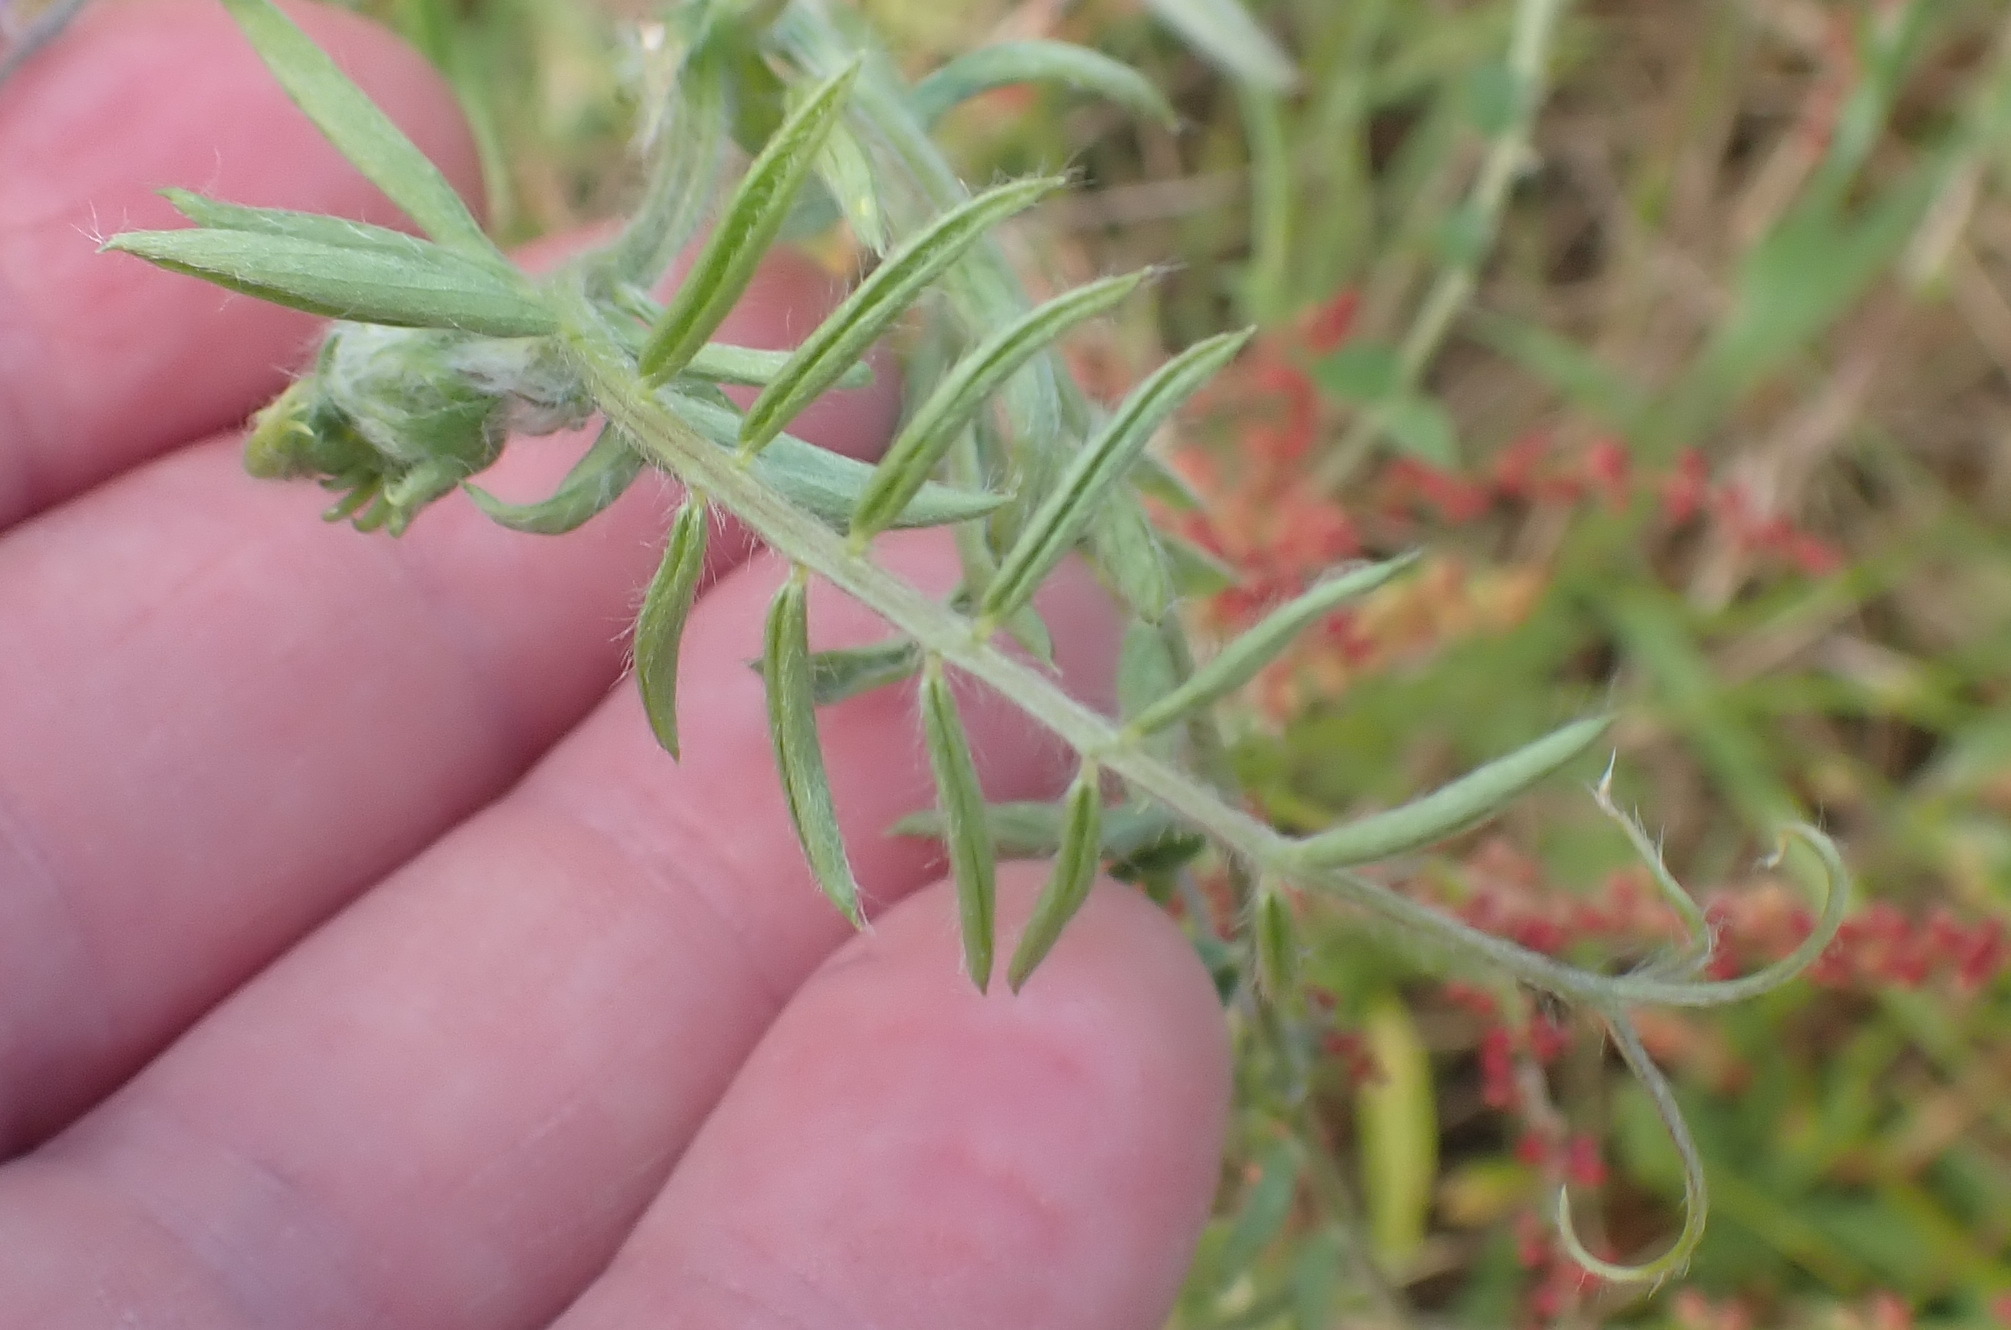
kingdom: Plantae
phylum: Tracheophyta
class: Magnoliopsida
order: Fabales
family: Fabaceae
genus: Vicia
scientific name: Vicia benghalensis
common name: Purple vetch
